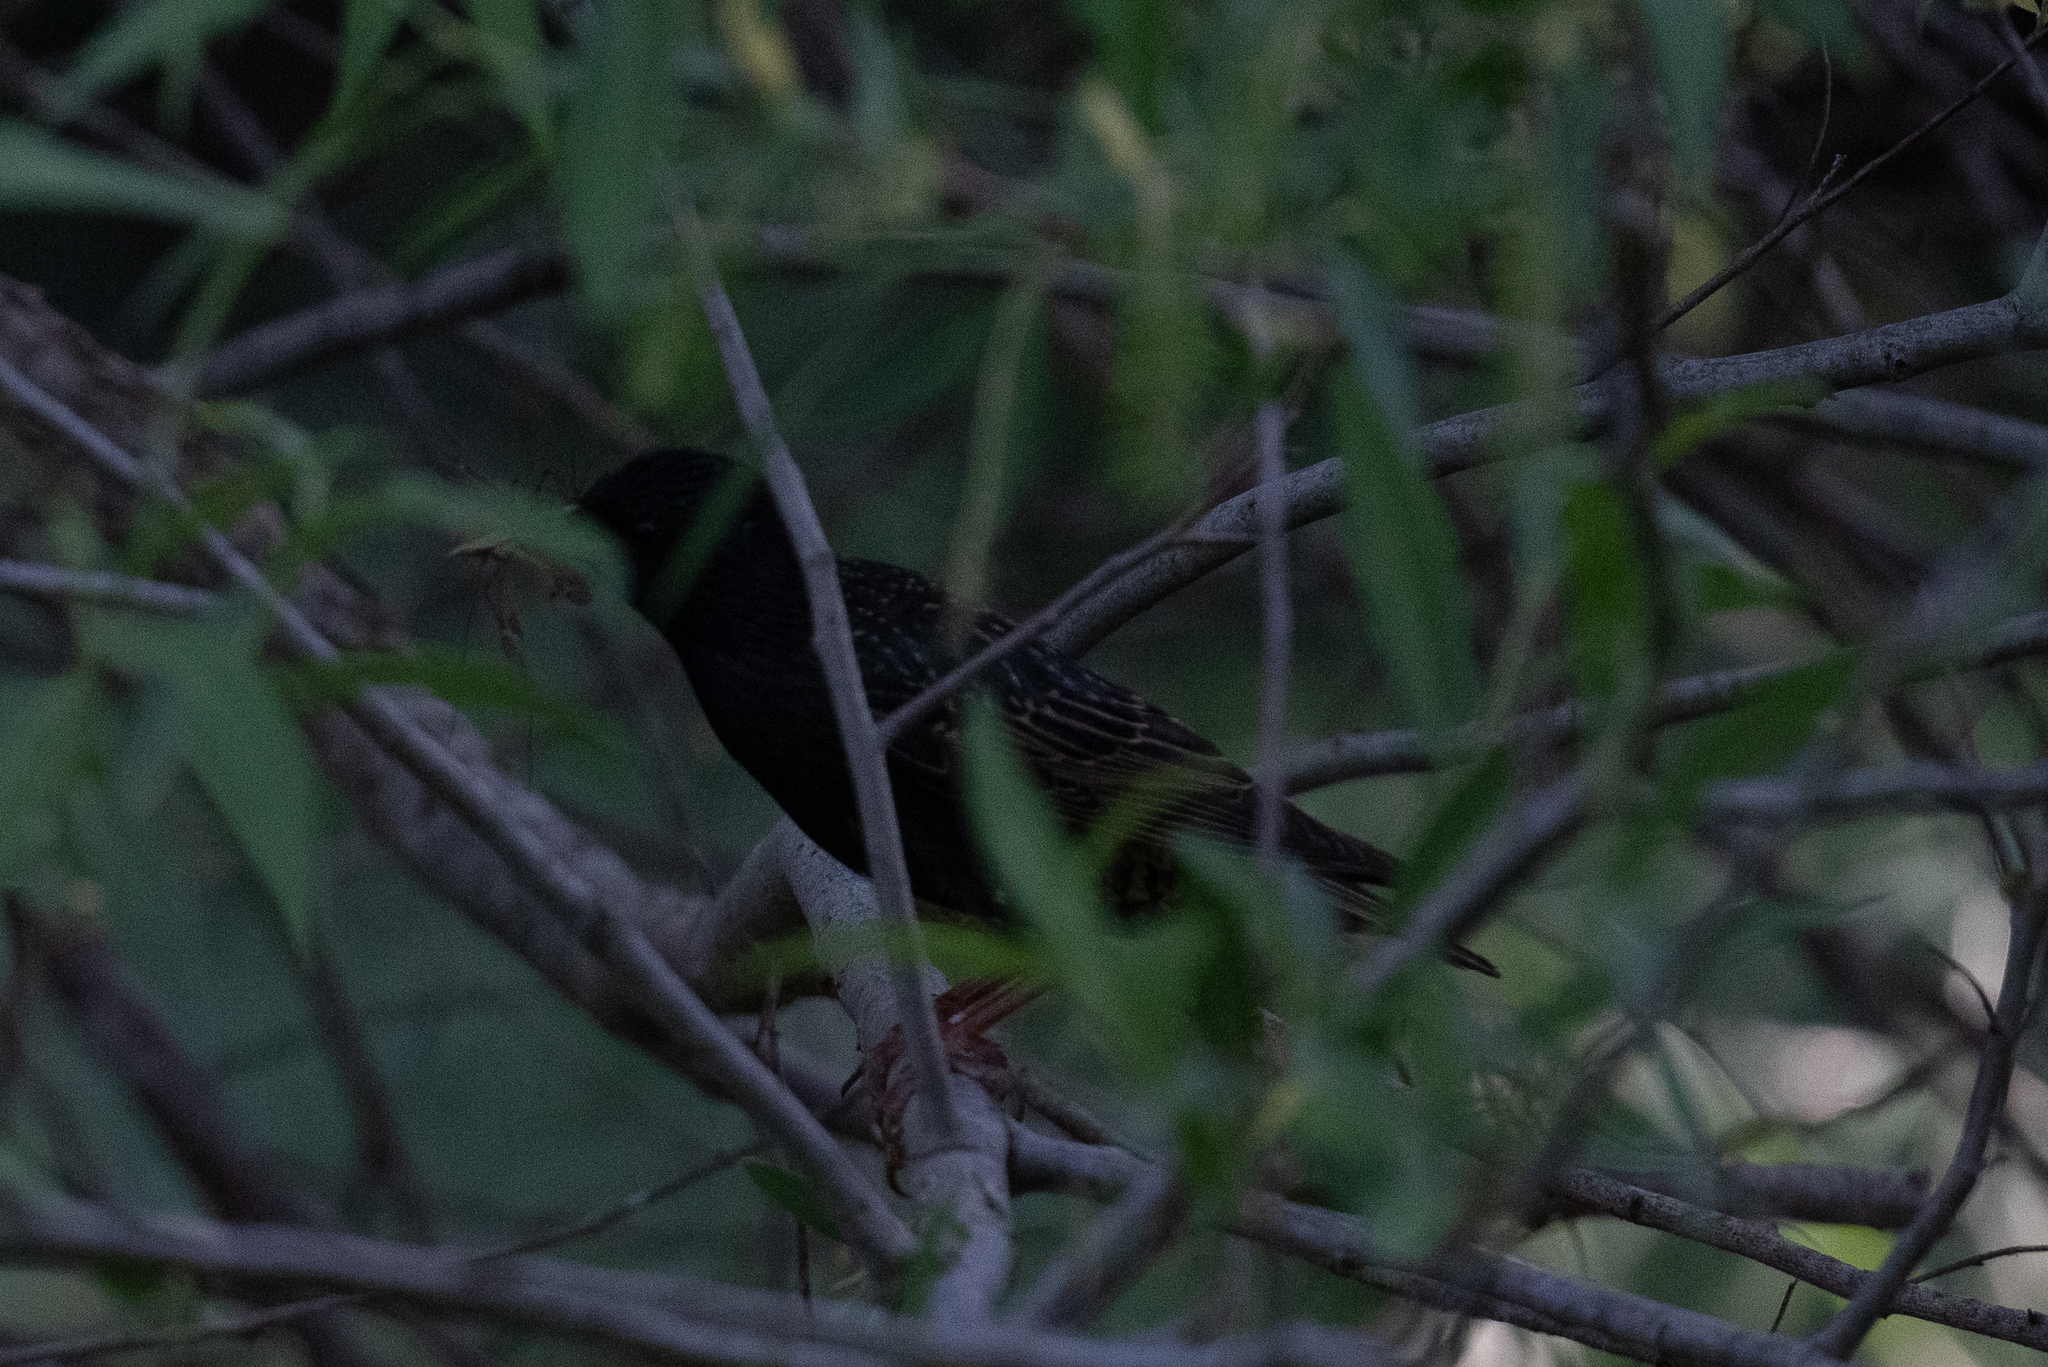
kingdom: Animalia
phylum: Chordata
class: Aves
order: Passeriformes
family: Sturnidae
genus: Sturnus
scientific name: Sturnus vulgaris
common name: Common starling
